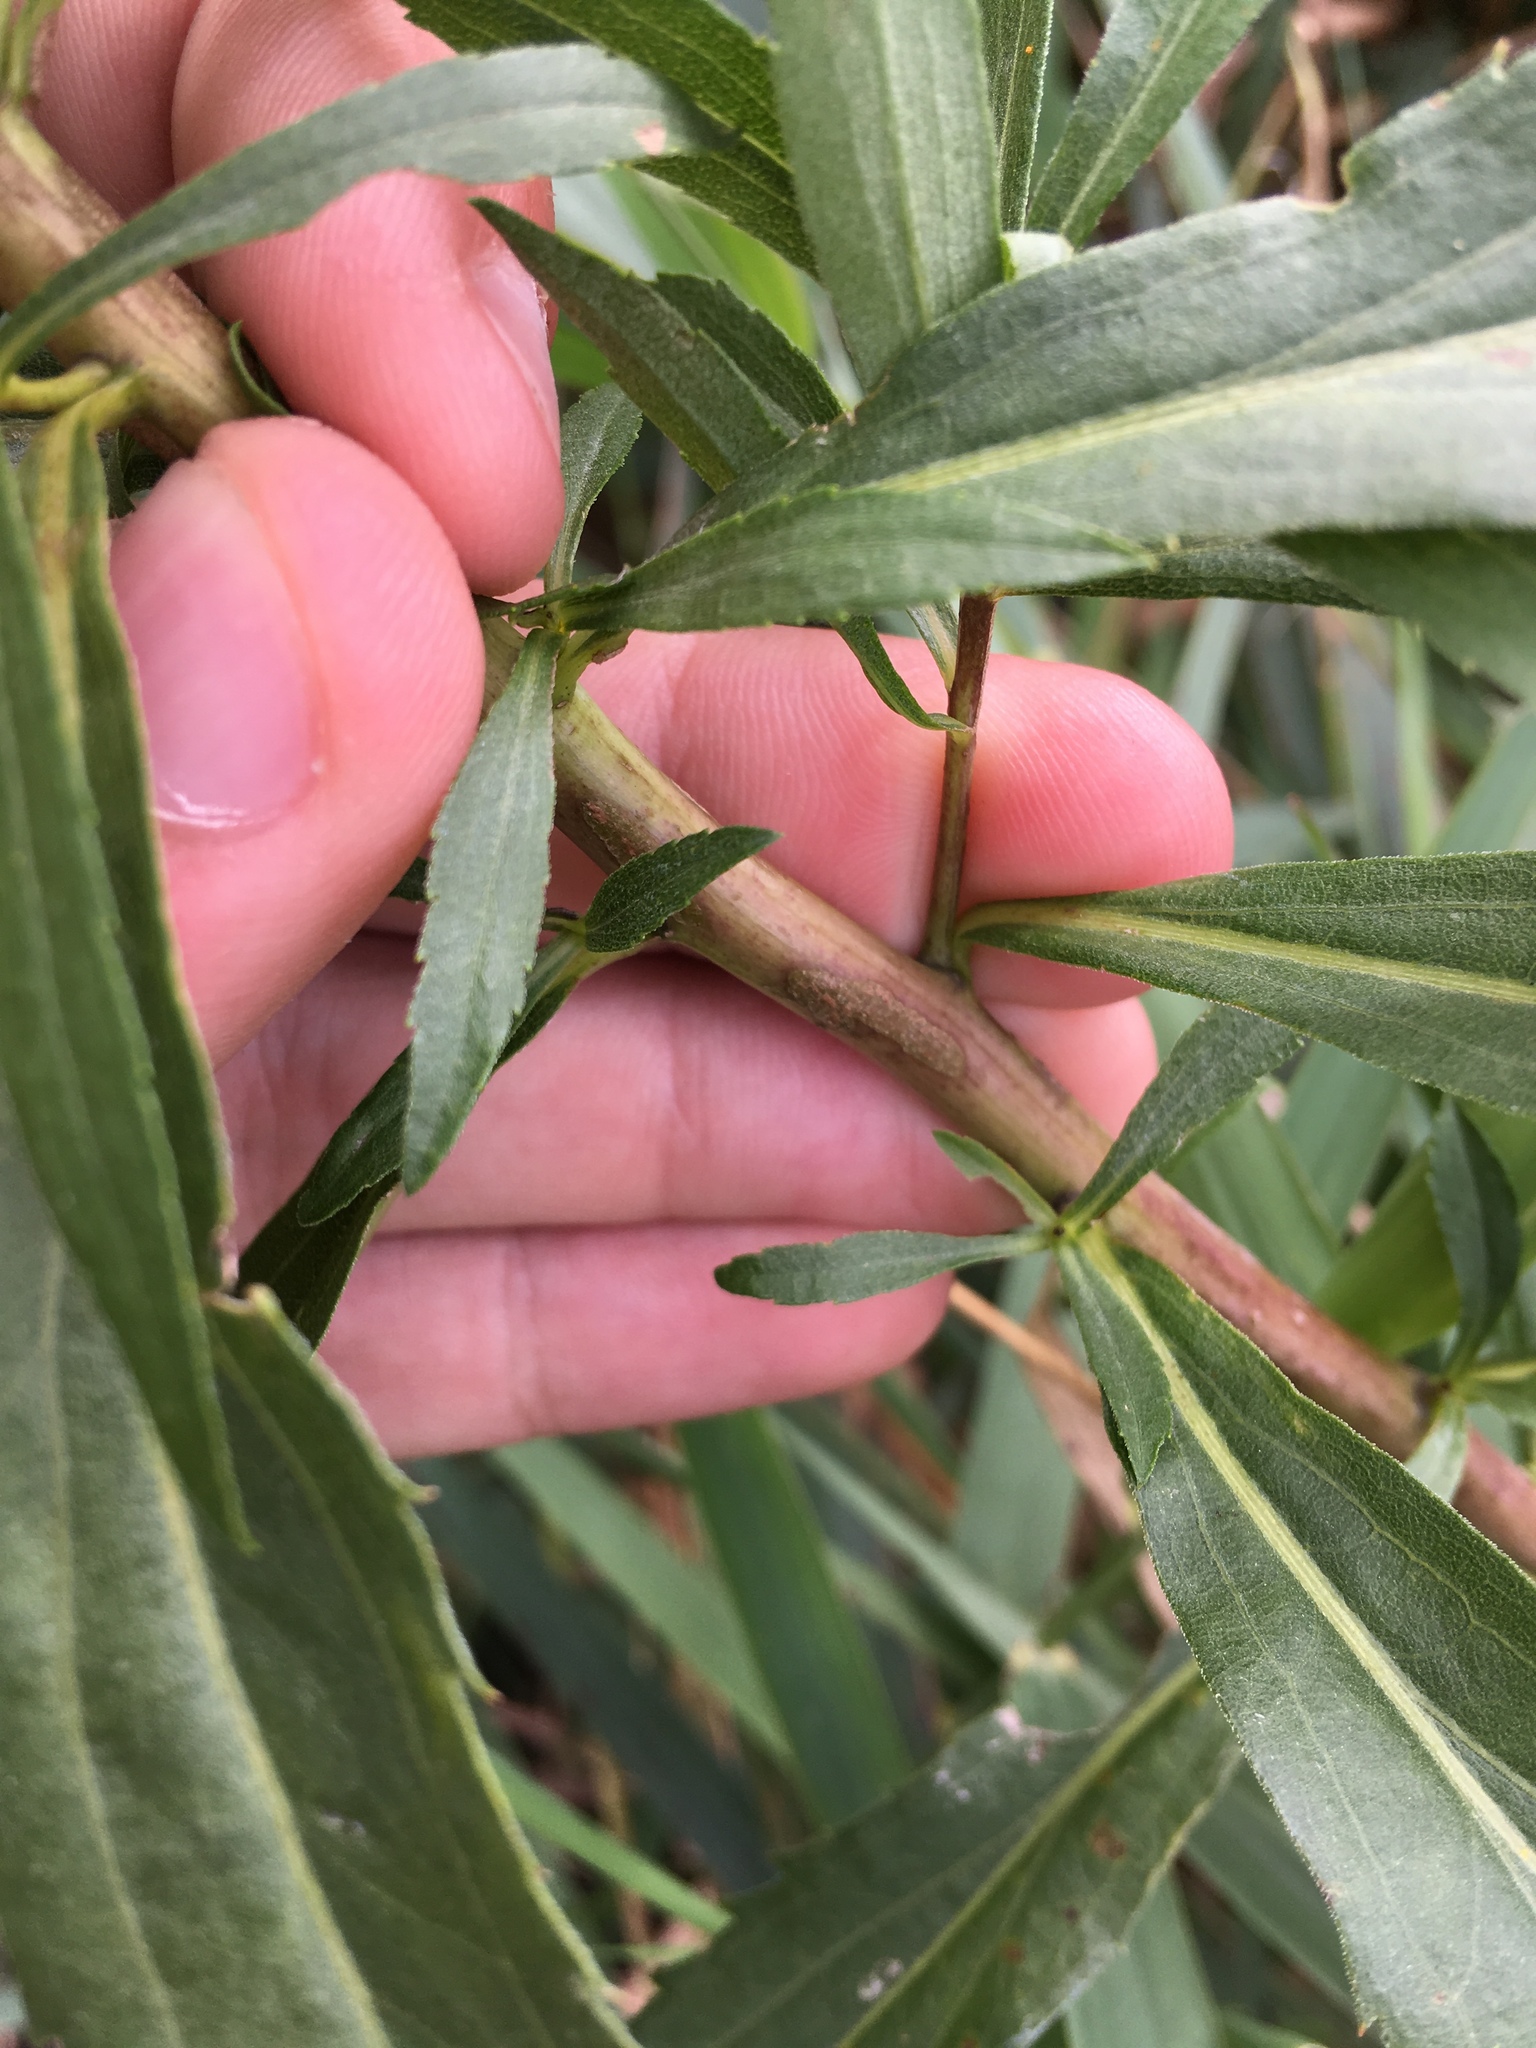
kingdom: Plantae
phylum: Tracheophyta
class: Magnoliopsida
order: Asterales
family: Asteraceae
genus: Solidago
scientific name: Solidago gigantea
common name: Giant goldenrod
